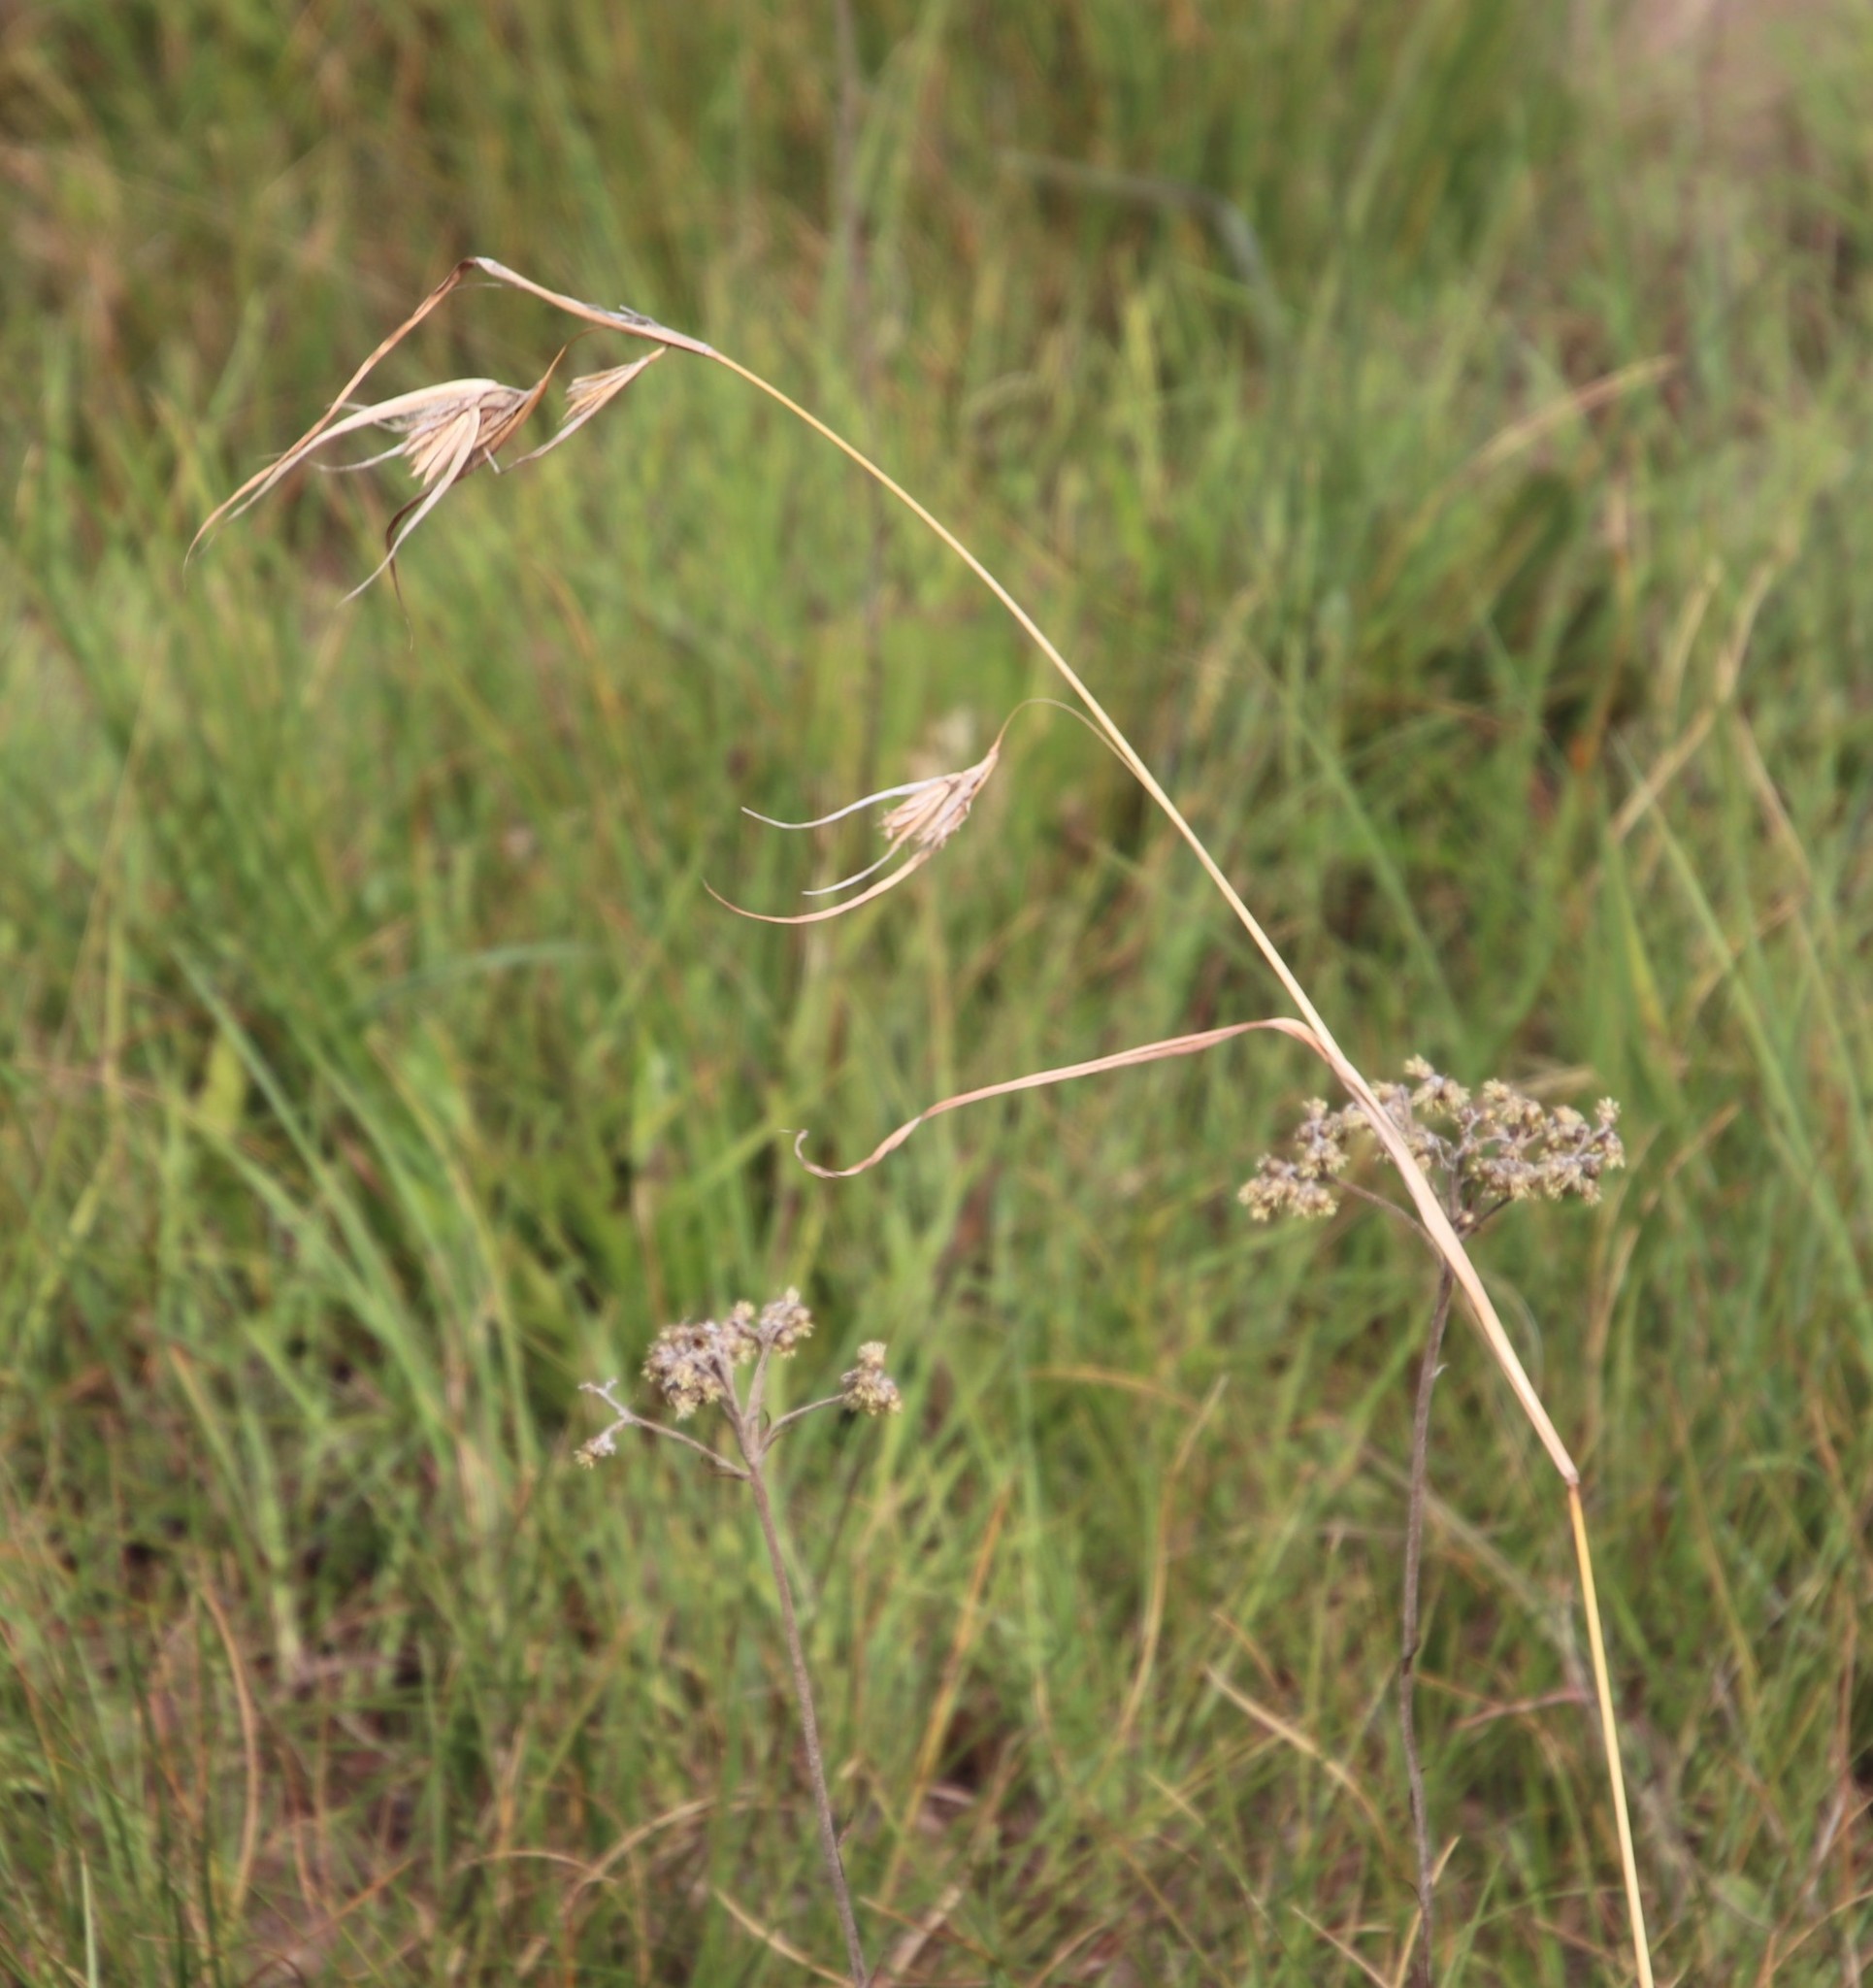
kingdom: Plantae
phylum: Tracheophyta
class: Liliopsida
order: Poales
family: Poaceae
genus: Themeda
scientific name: Themeda triandra
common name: Kangaroo grass
